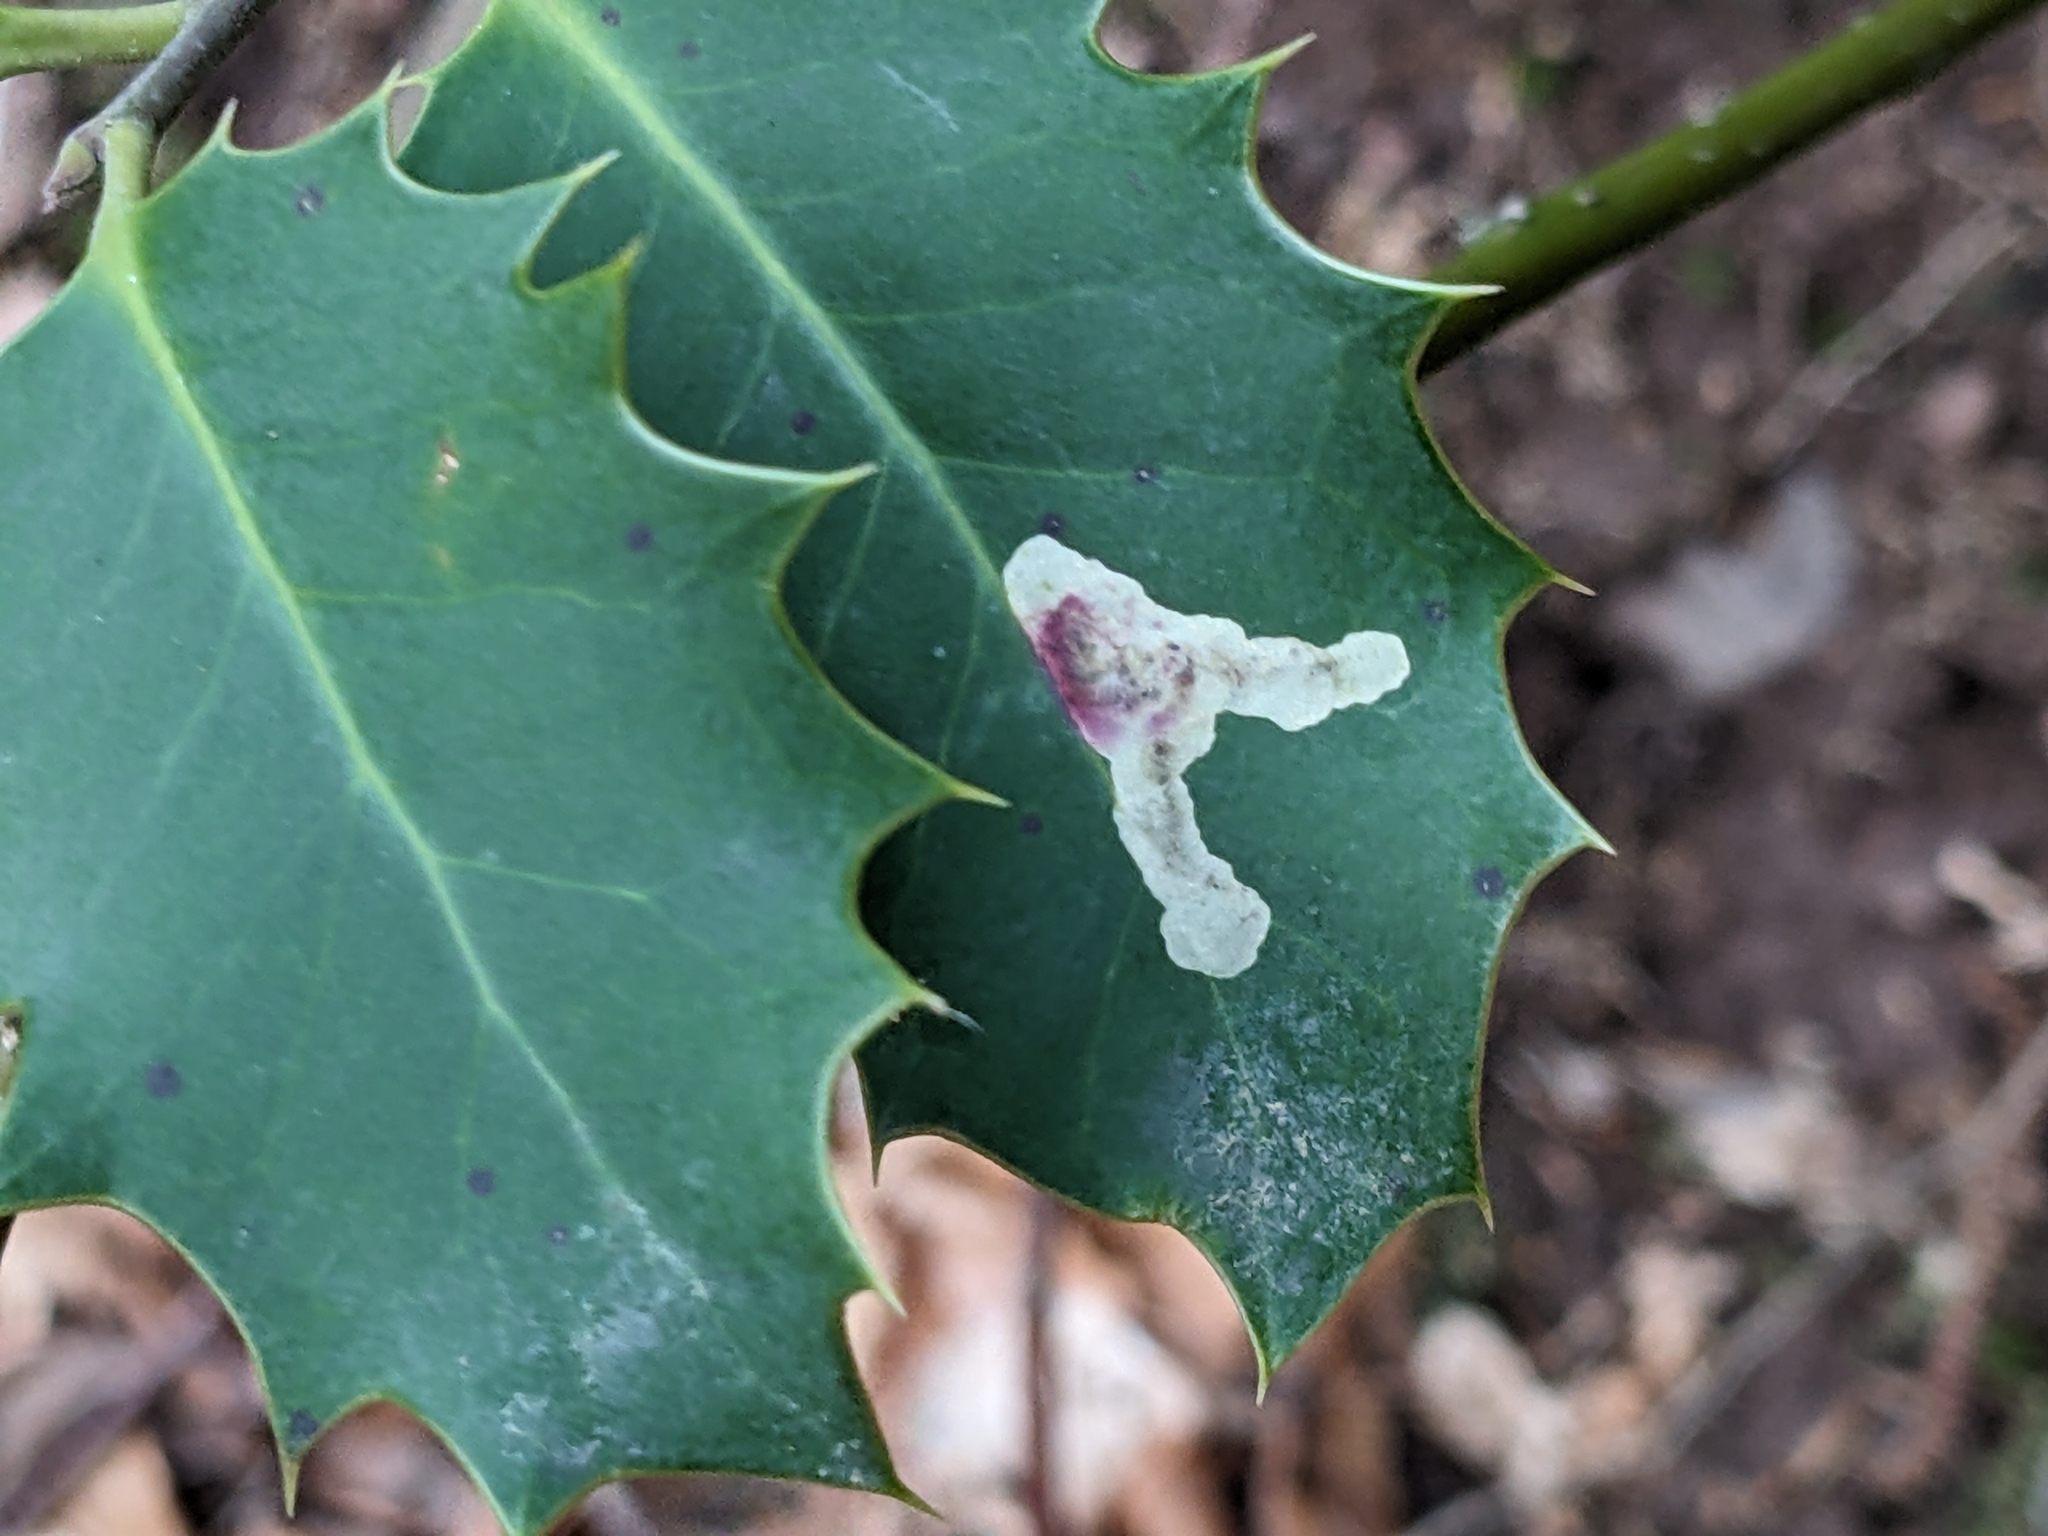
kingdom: Animalia
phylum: Arthropoda
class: Insecta
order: Diptera
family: Agromyzidae
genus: Phytomyza
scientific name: Phytomyza ilicis
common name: Holly leafminer
